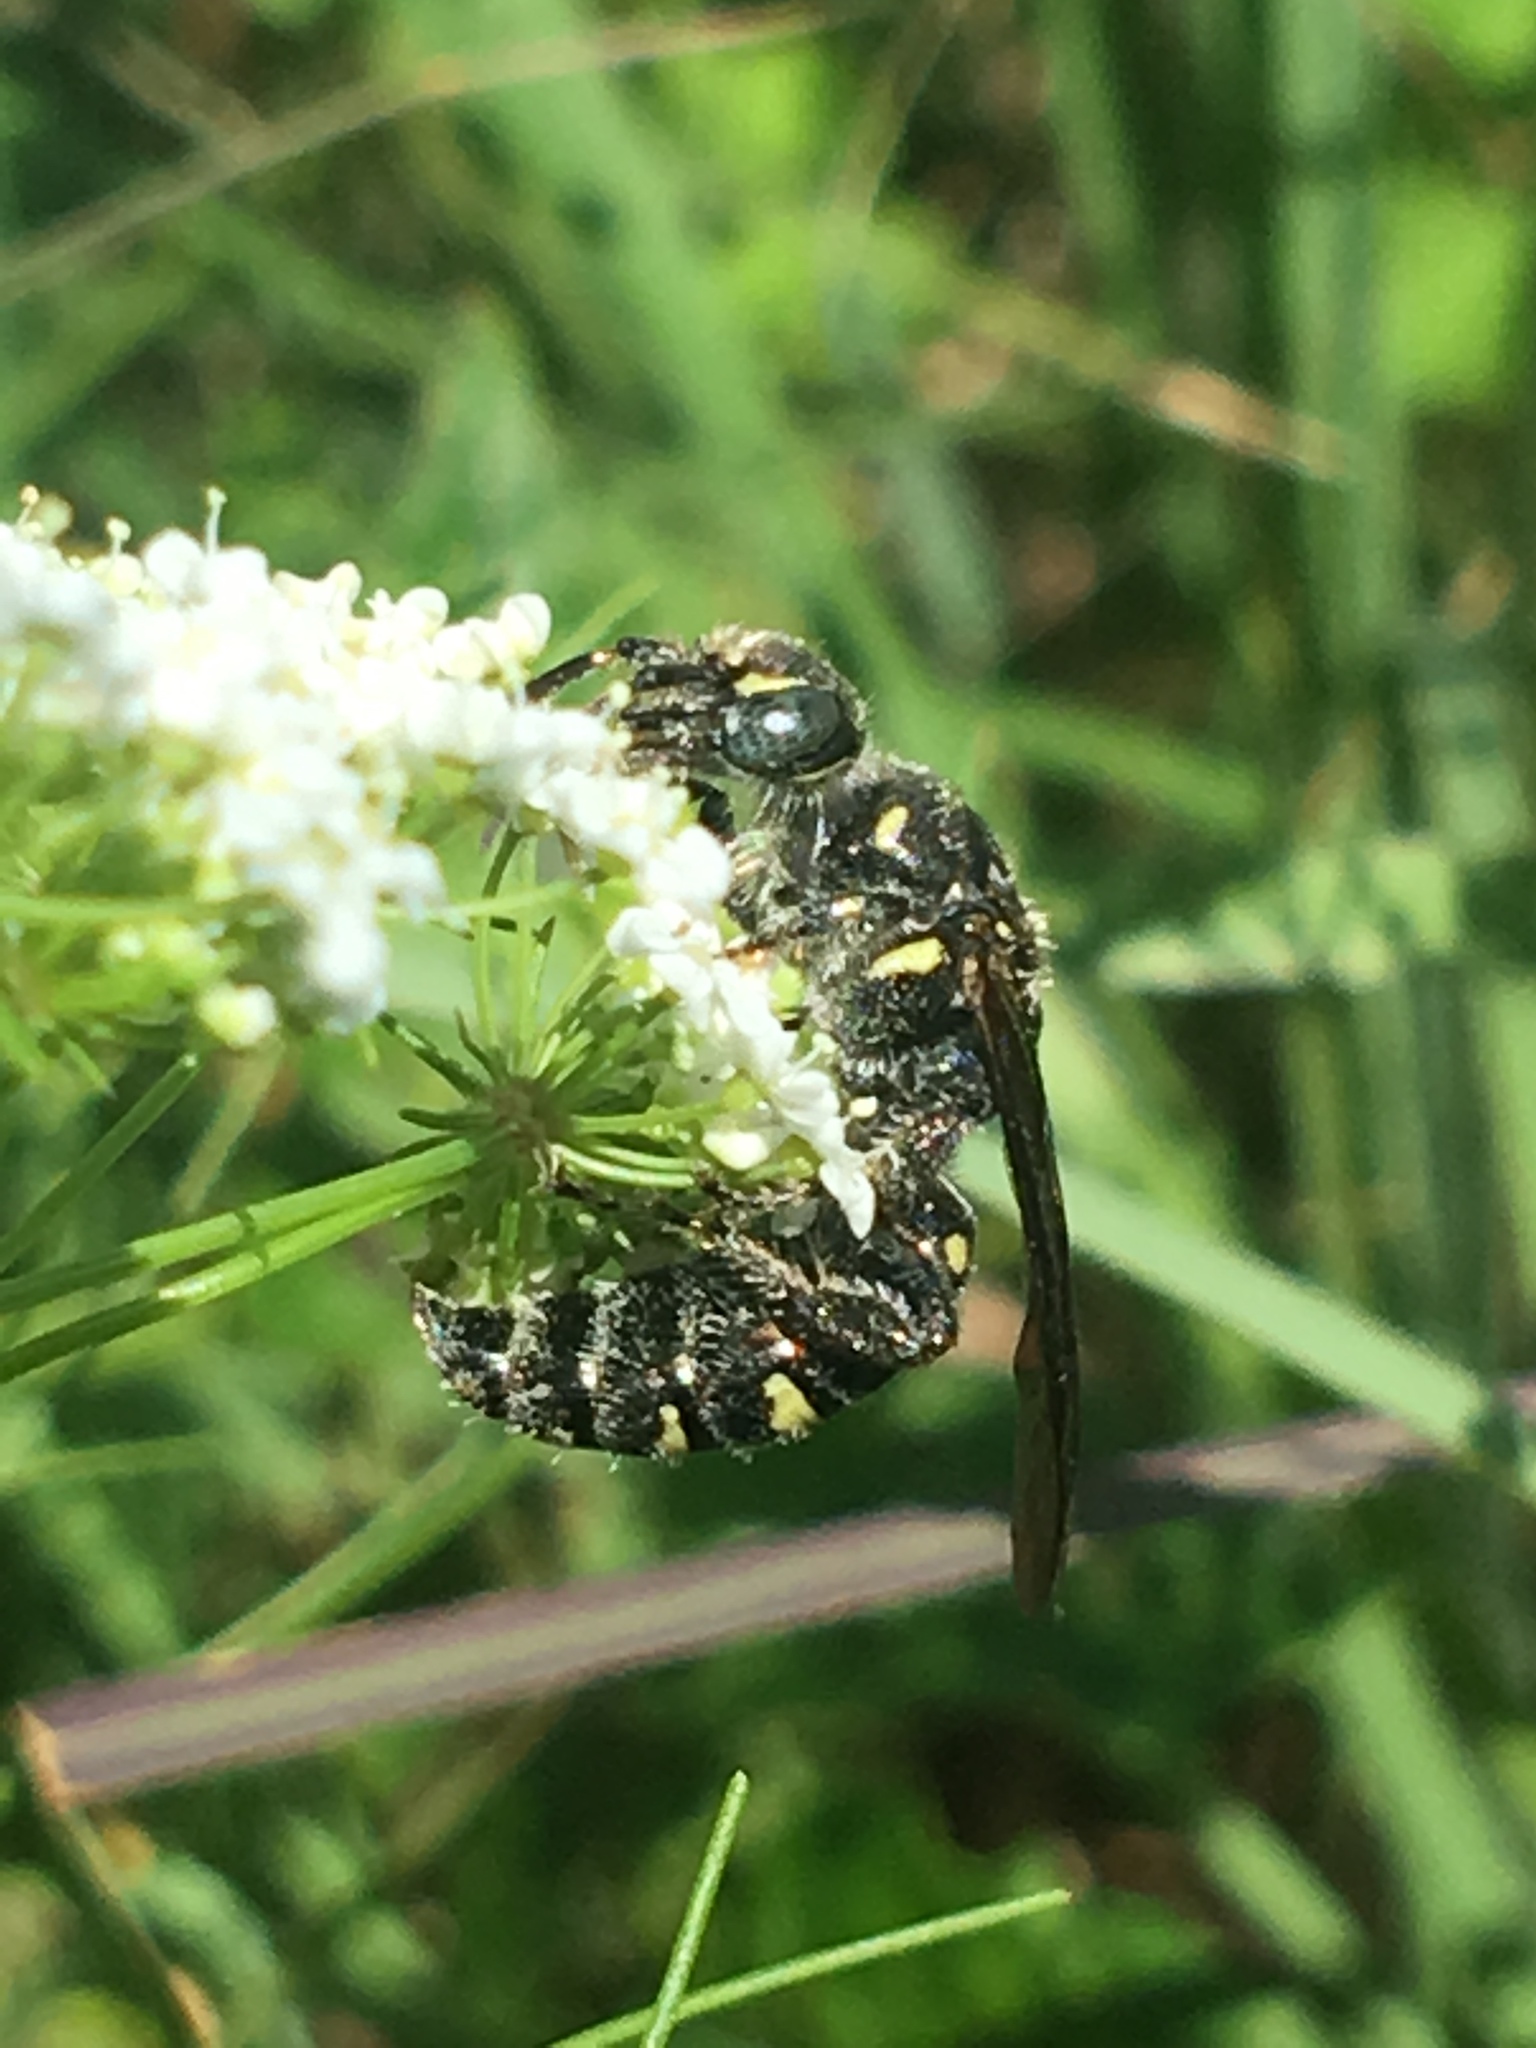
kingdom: Animalia
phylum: Arthropoda
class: Insecta
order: Hymenoptera
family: Tiphiidae
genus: Myzinum
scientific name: Myzinum obscurum
